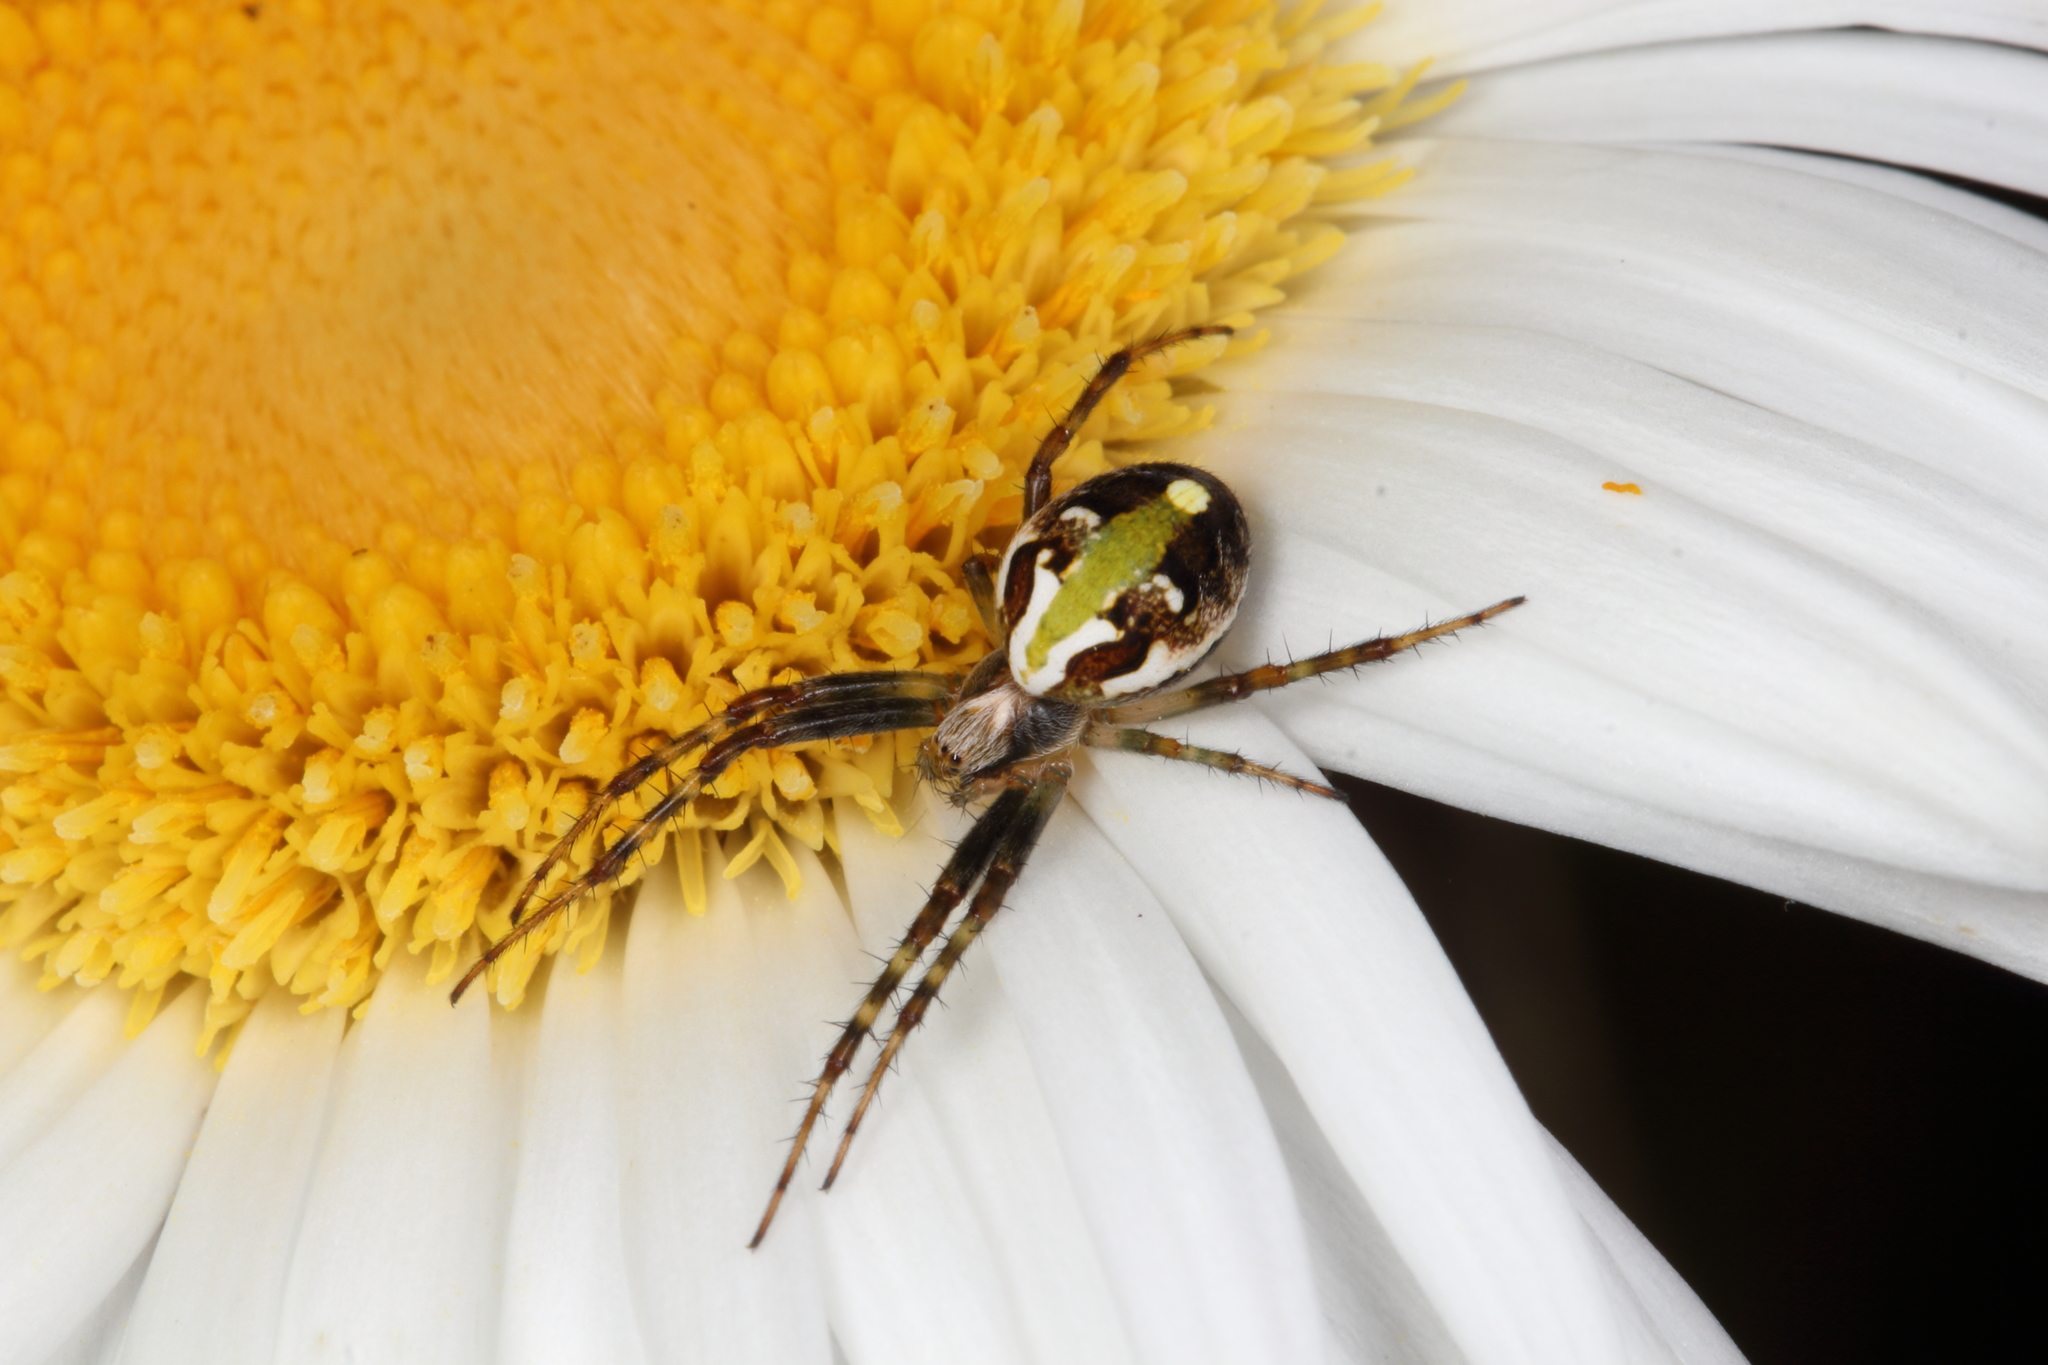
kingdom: Animalia
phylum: Arthropoda
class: Arachnida
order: Araneae
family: Araneidae
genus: Novaranea
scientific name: Novaranea queribunda
